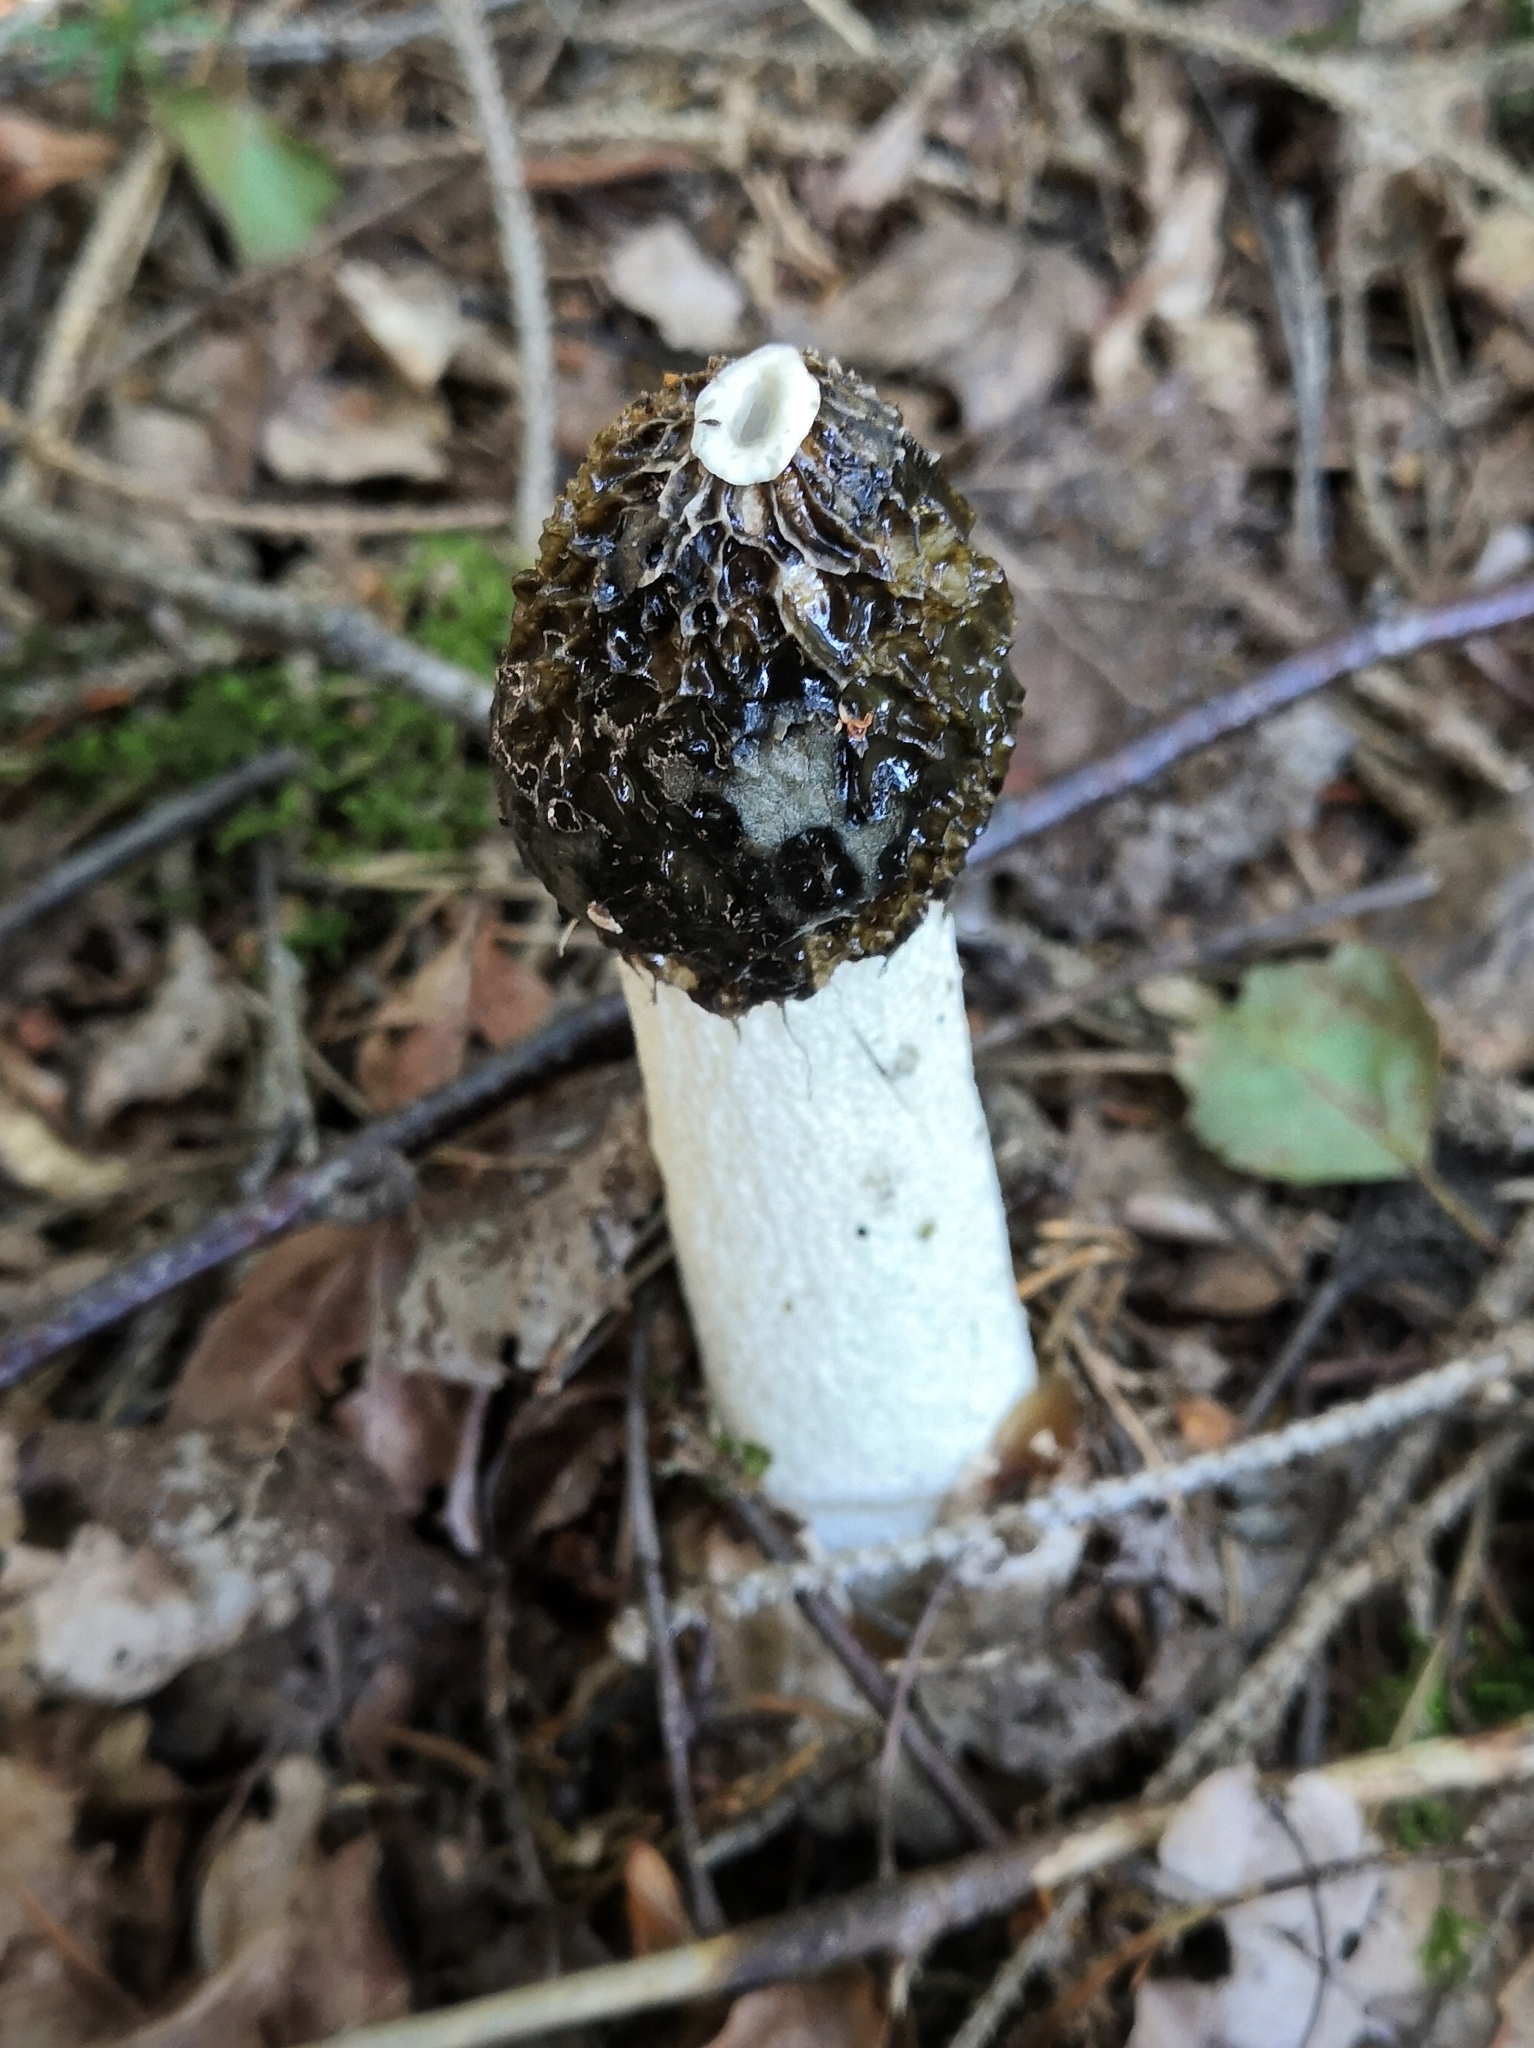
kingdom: Fungi
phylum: Basidiomycota
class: Agaricomycetes
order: Phallales
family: Phallaceae
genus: Phallus
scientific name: Phallus impudicus
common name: Common stinkhorn
